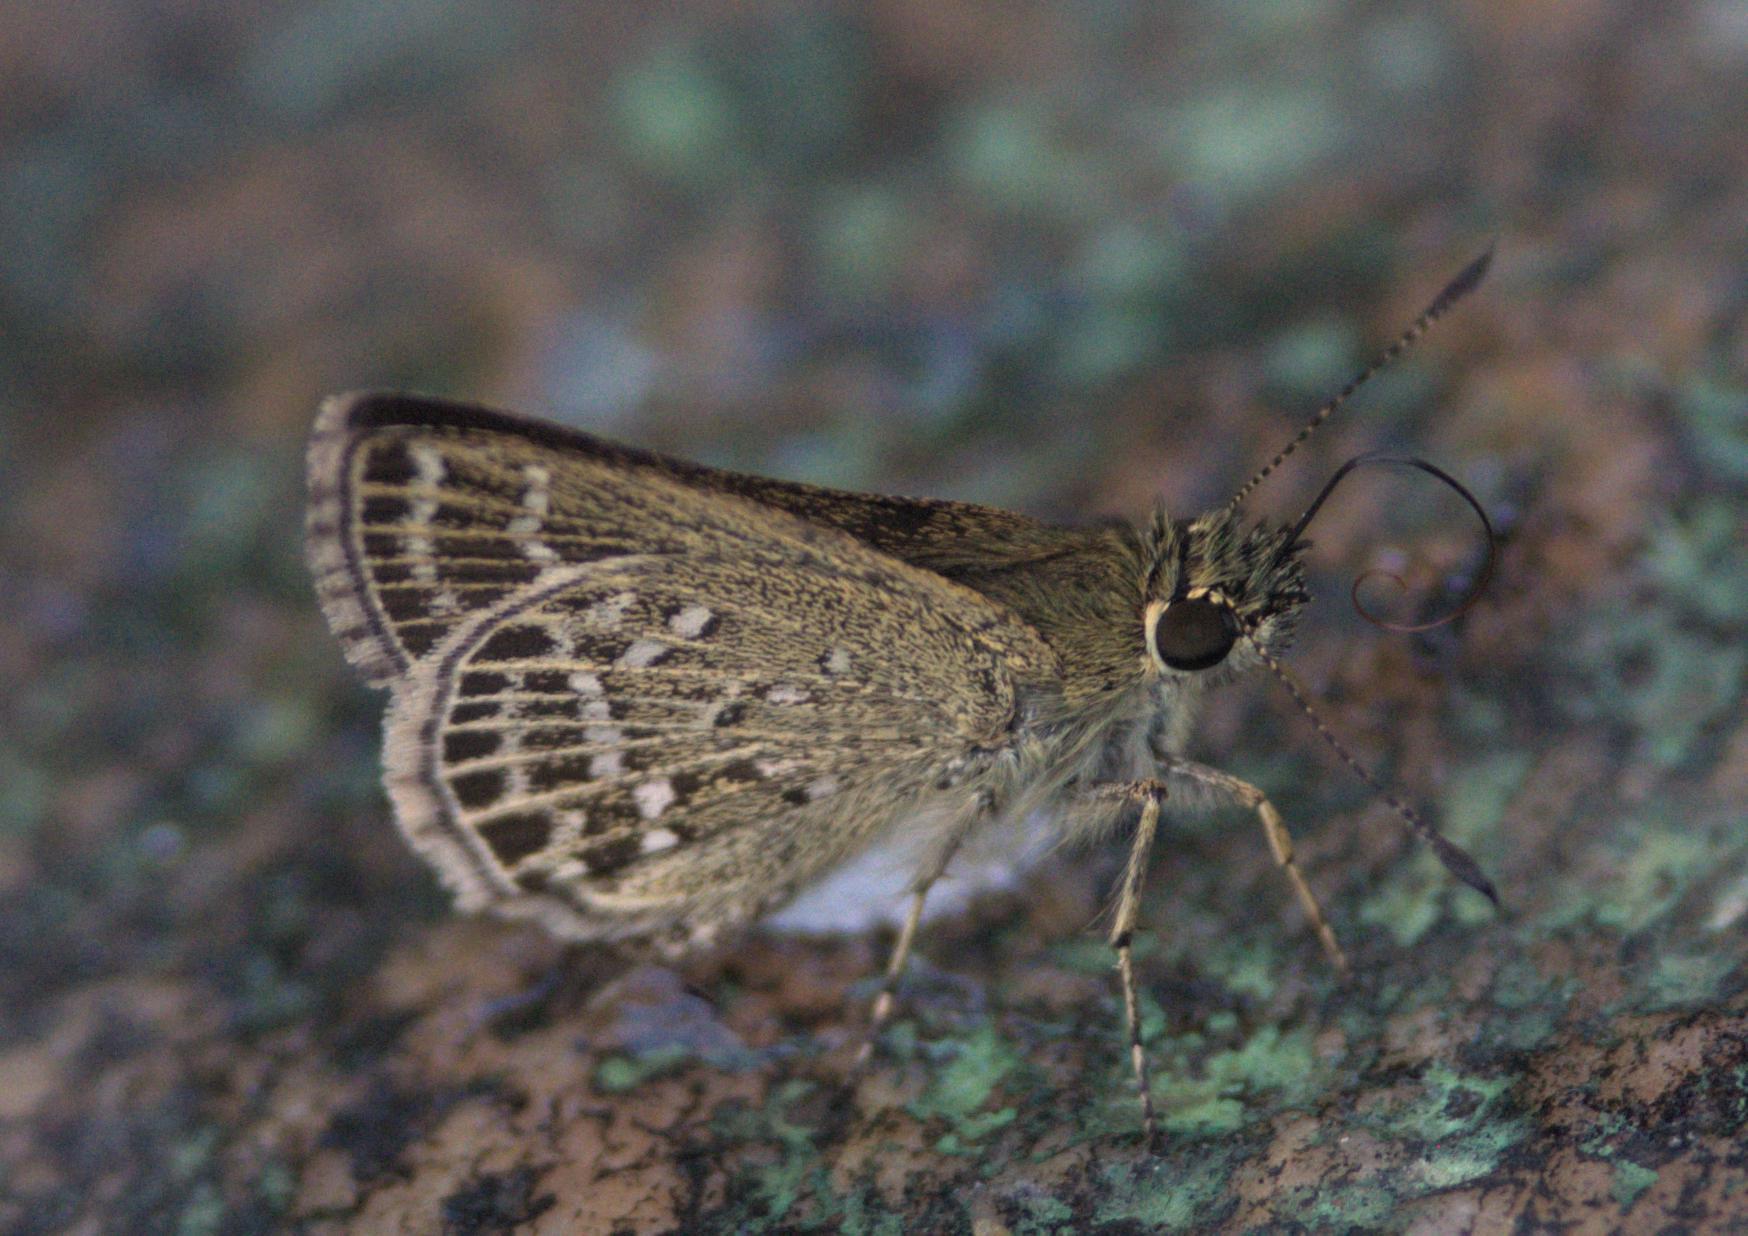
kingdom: Animalia
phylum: Arthropoda
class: Insecta
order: Lepidoptera
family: Hesperiidae
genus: Aeromachus
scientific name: Aeromachus stigmata
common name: Veined scrub hopper
